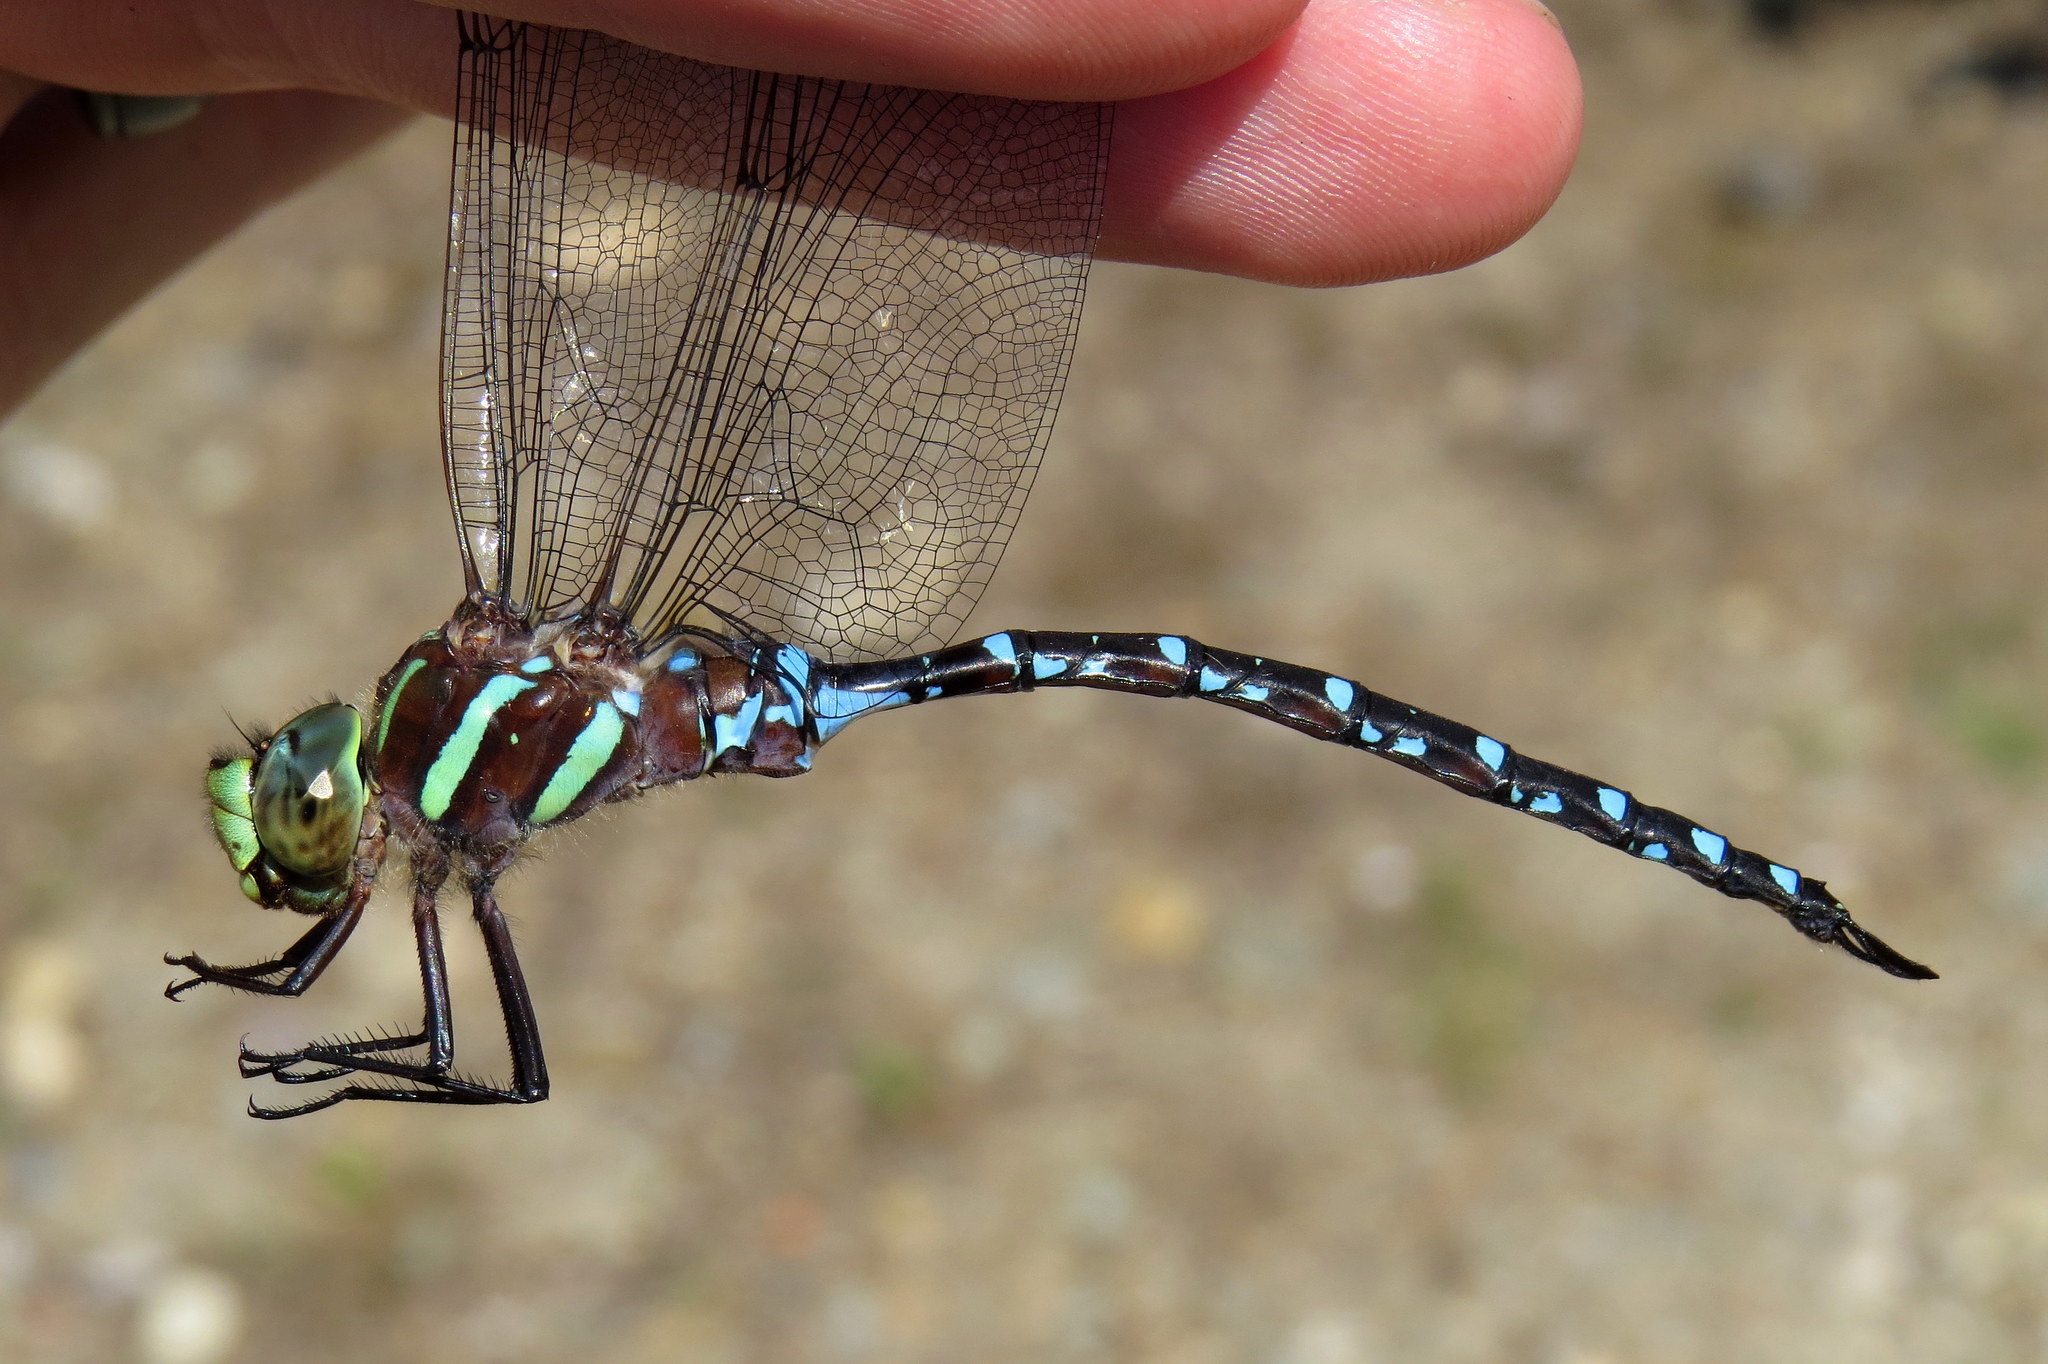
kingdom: Animalia
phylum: Arthropoda
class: Insecta
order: Odonata
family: Aeshnidae
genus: Aeshna
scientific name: Aeshna tuberculifera
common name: Aeschne à tubercules
